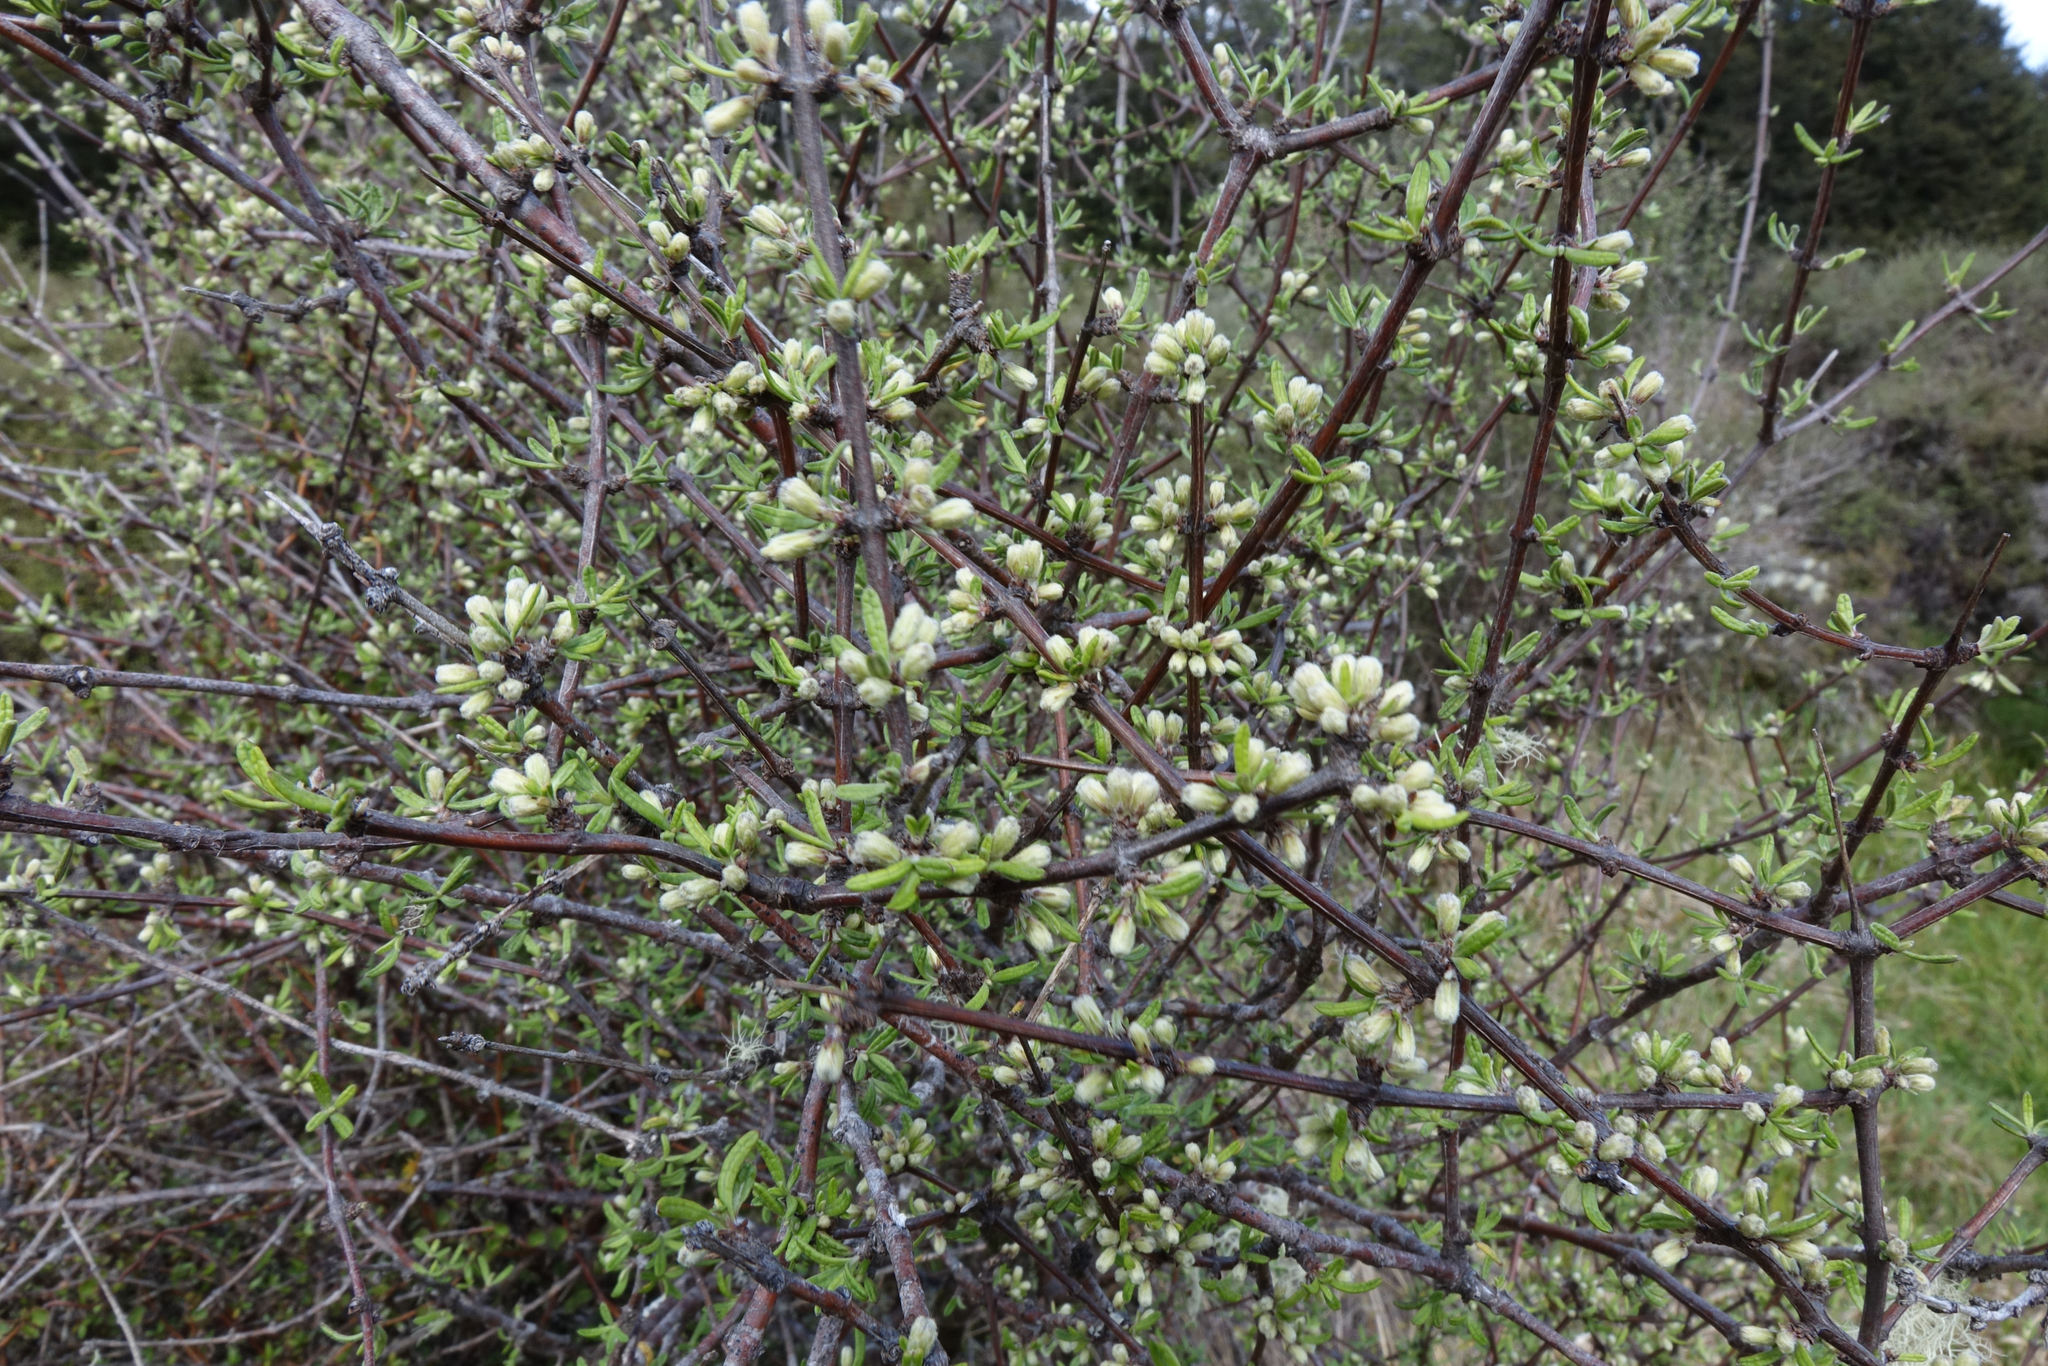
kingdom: Plantae
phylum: Tracheophyta
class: Magnoliopsida
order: Asterales
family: Asteraceae
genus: Olearia
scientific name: Olearia bullata
